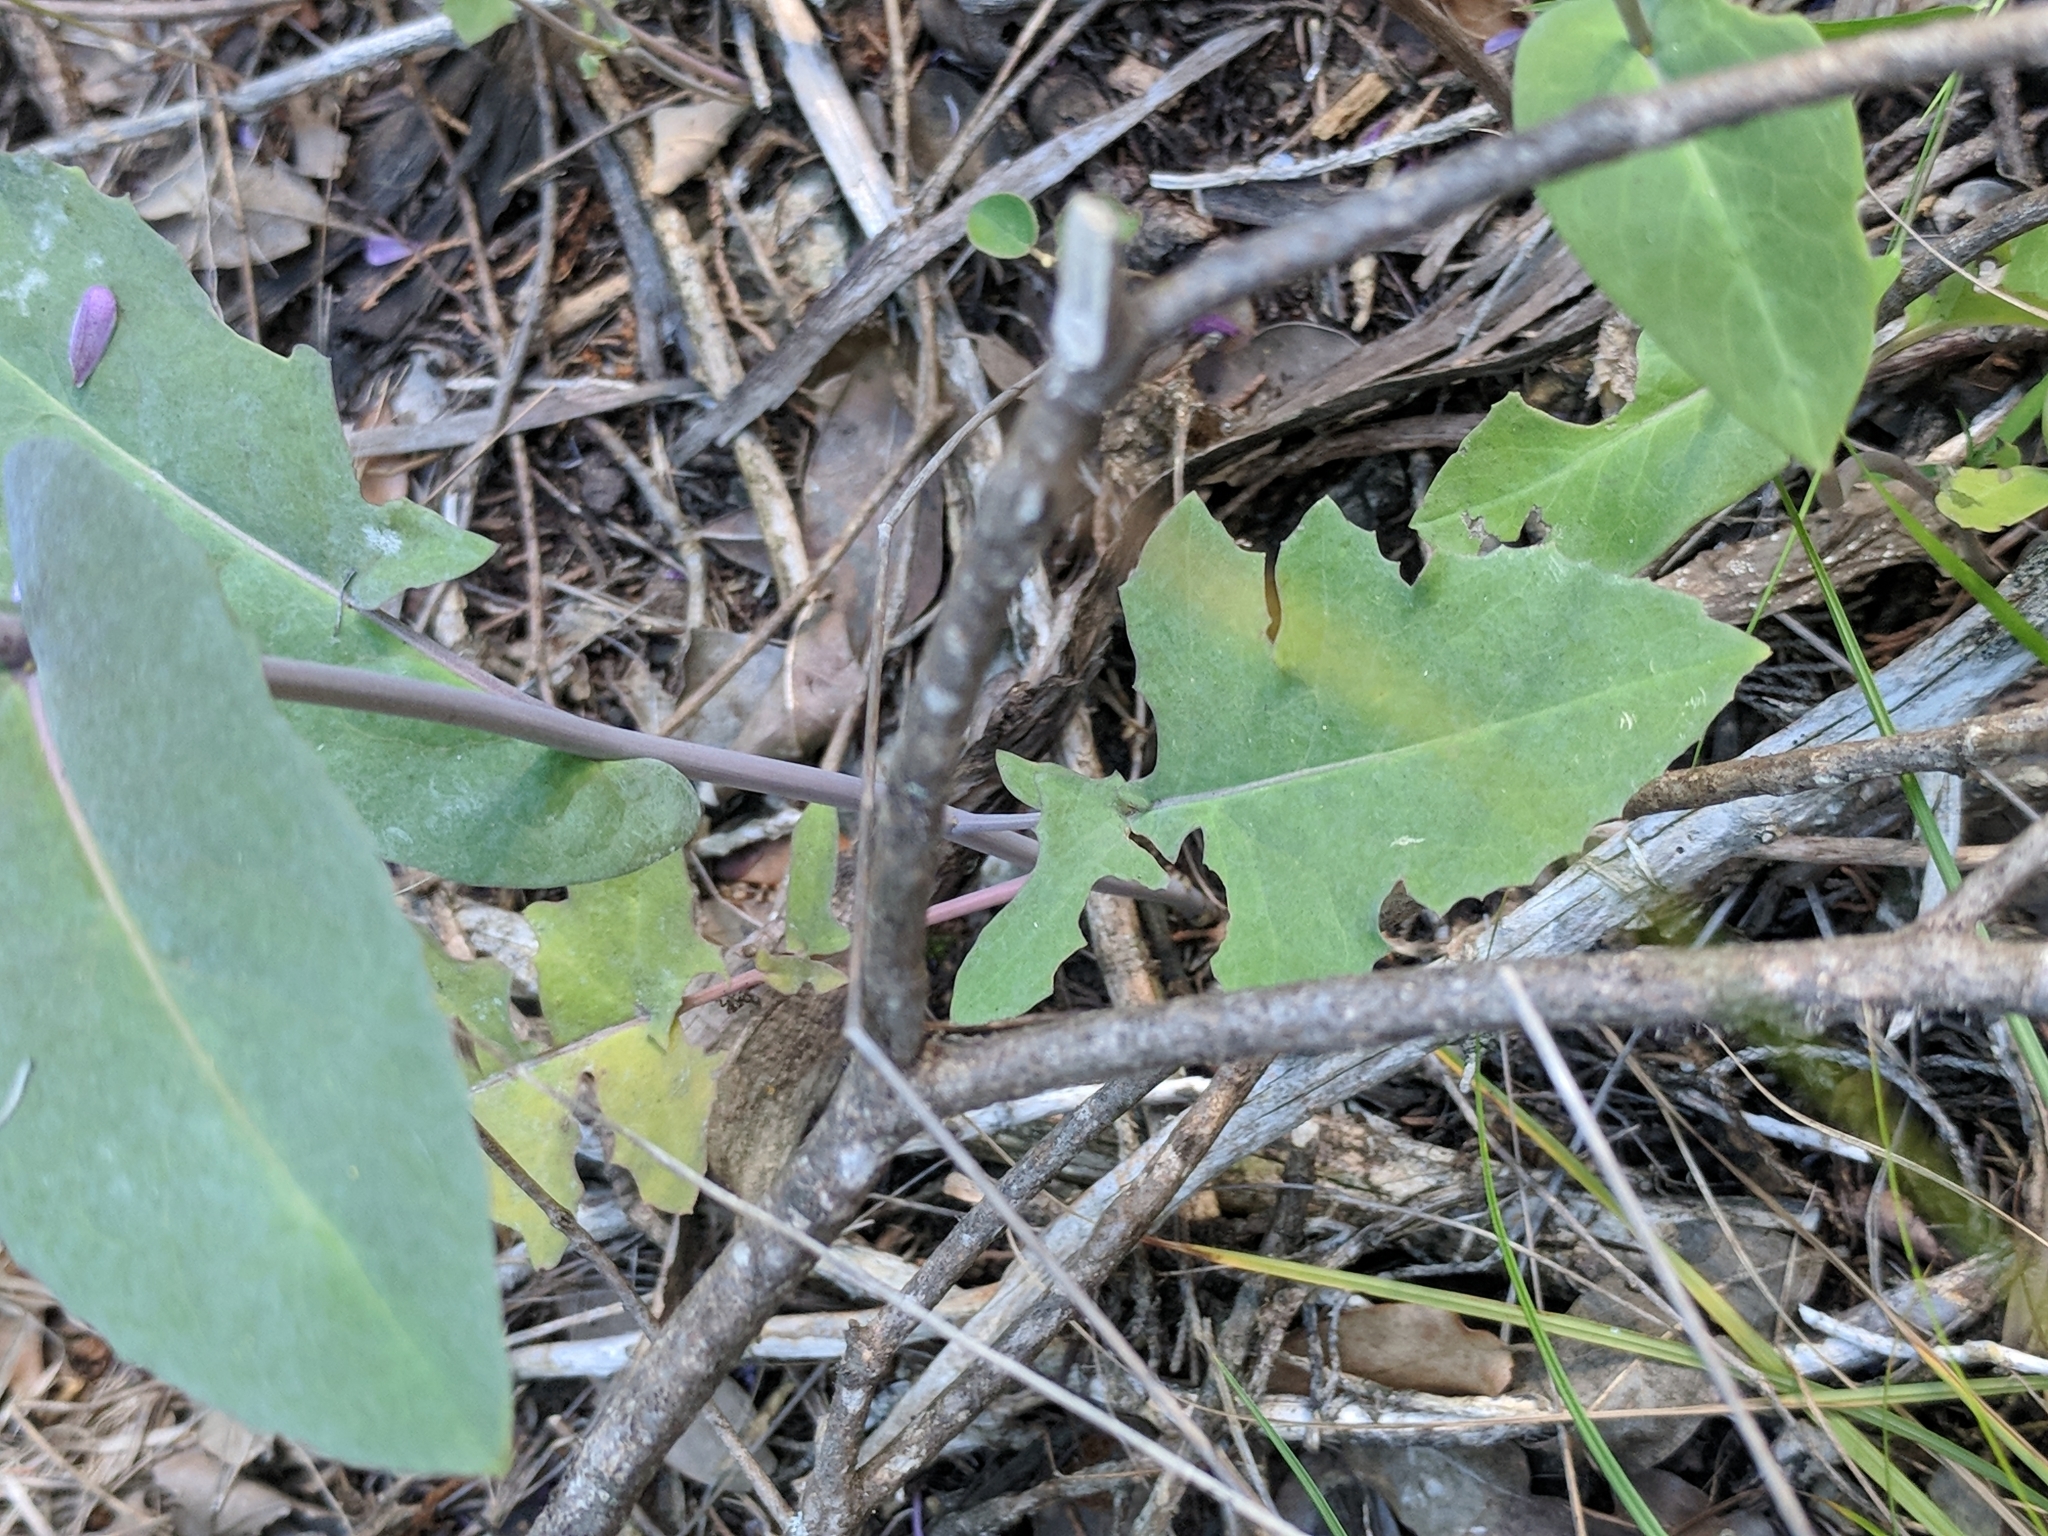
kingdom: Plantae
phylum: Tracheophyta
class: Magnoliopsida
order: Brassicales
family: Brassicaceae
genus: Streptanthus
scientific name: Streptanthus bracteatus
